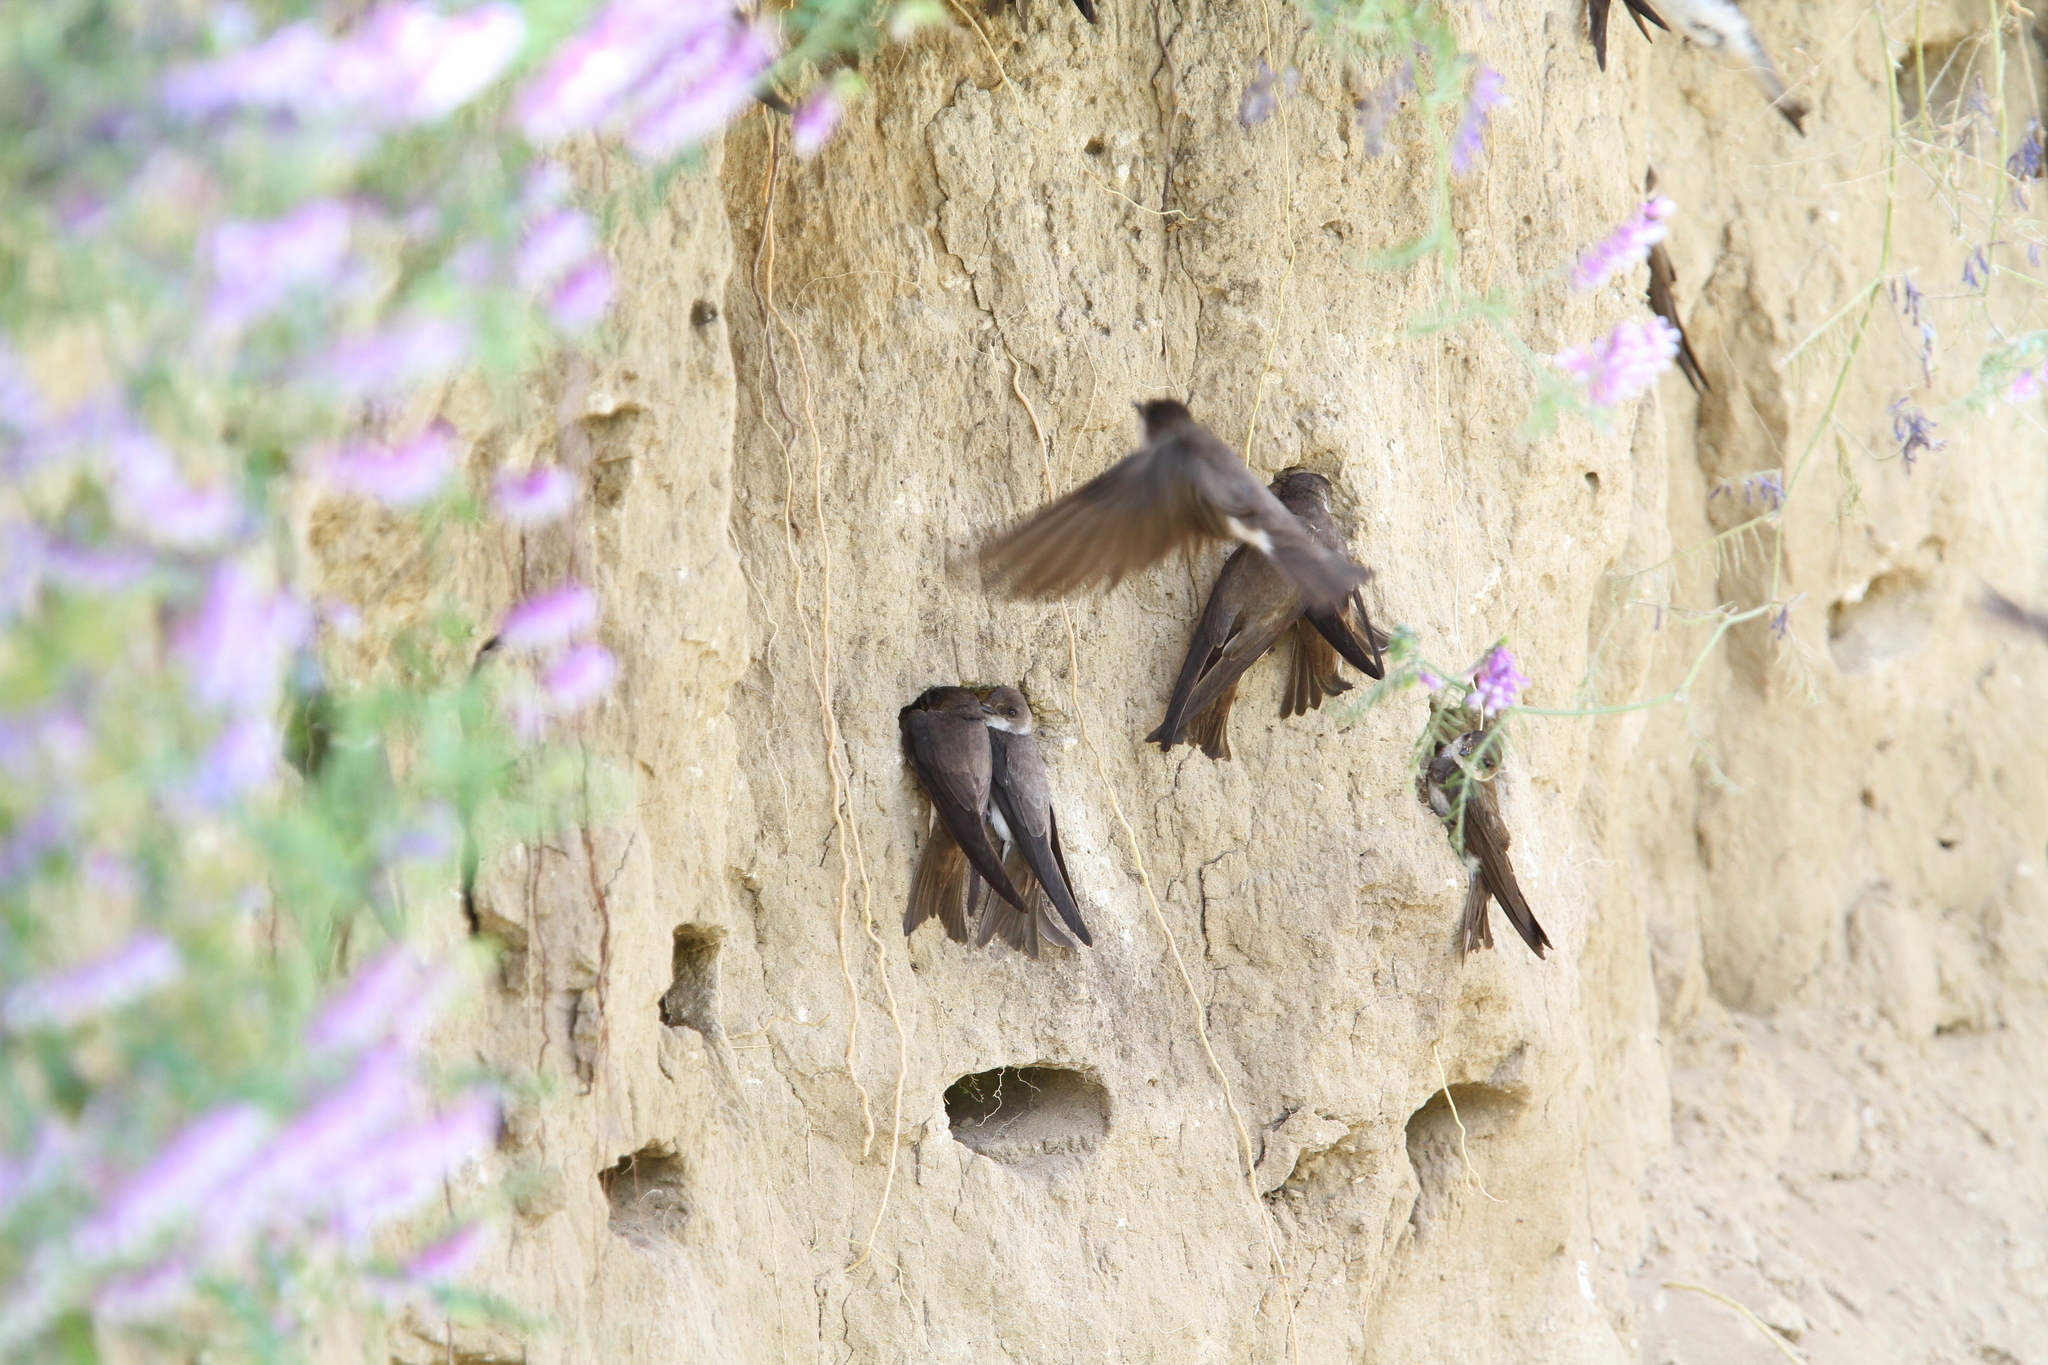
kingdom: Animalia
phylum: Chordata
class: Aves
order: Passeriformes
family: Hirundinidae
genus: Riparia
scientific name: Riparia riparia
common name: Sand martin
